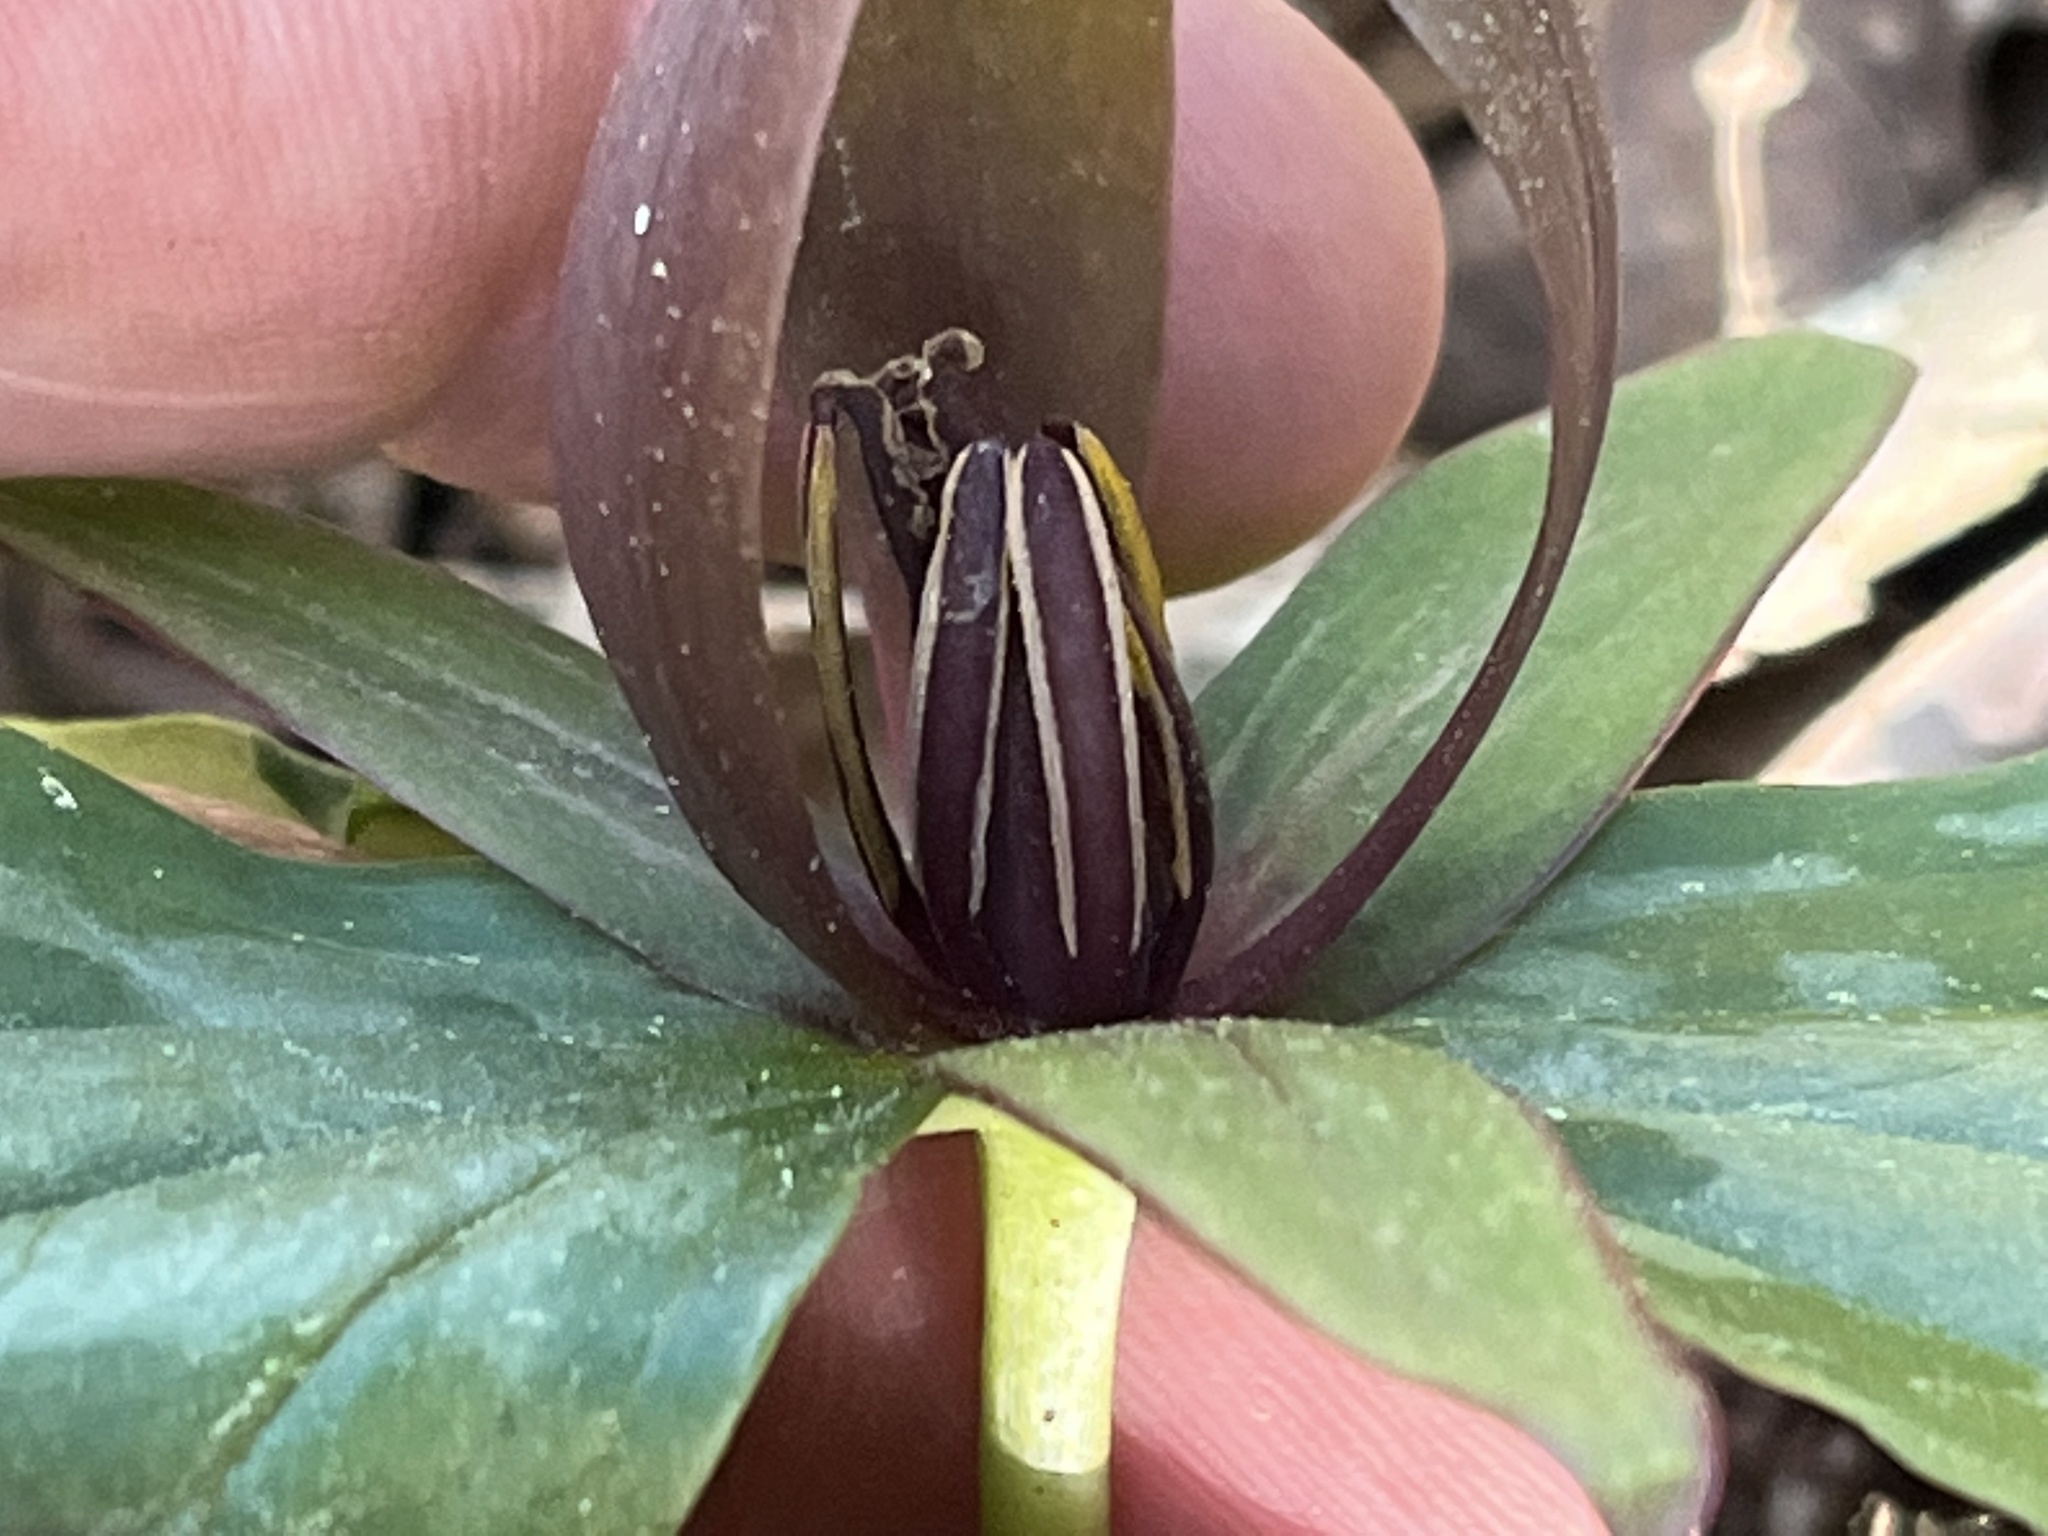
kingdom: Plantae
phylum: Tracheophyta
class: Liliopsida
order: Liliales
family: Melanthiaceae
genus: Trillium
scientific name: Trillium cuneatum
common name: Cuneate trillium
